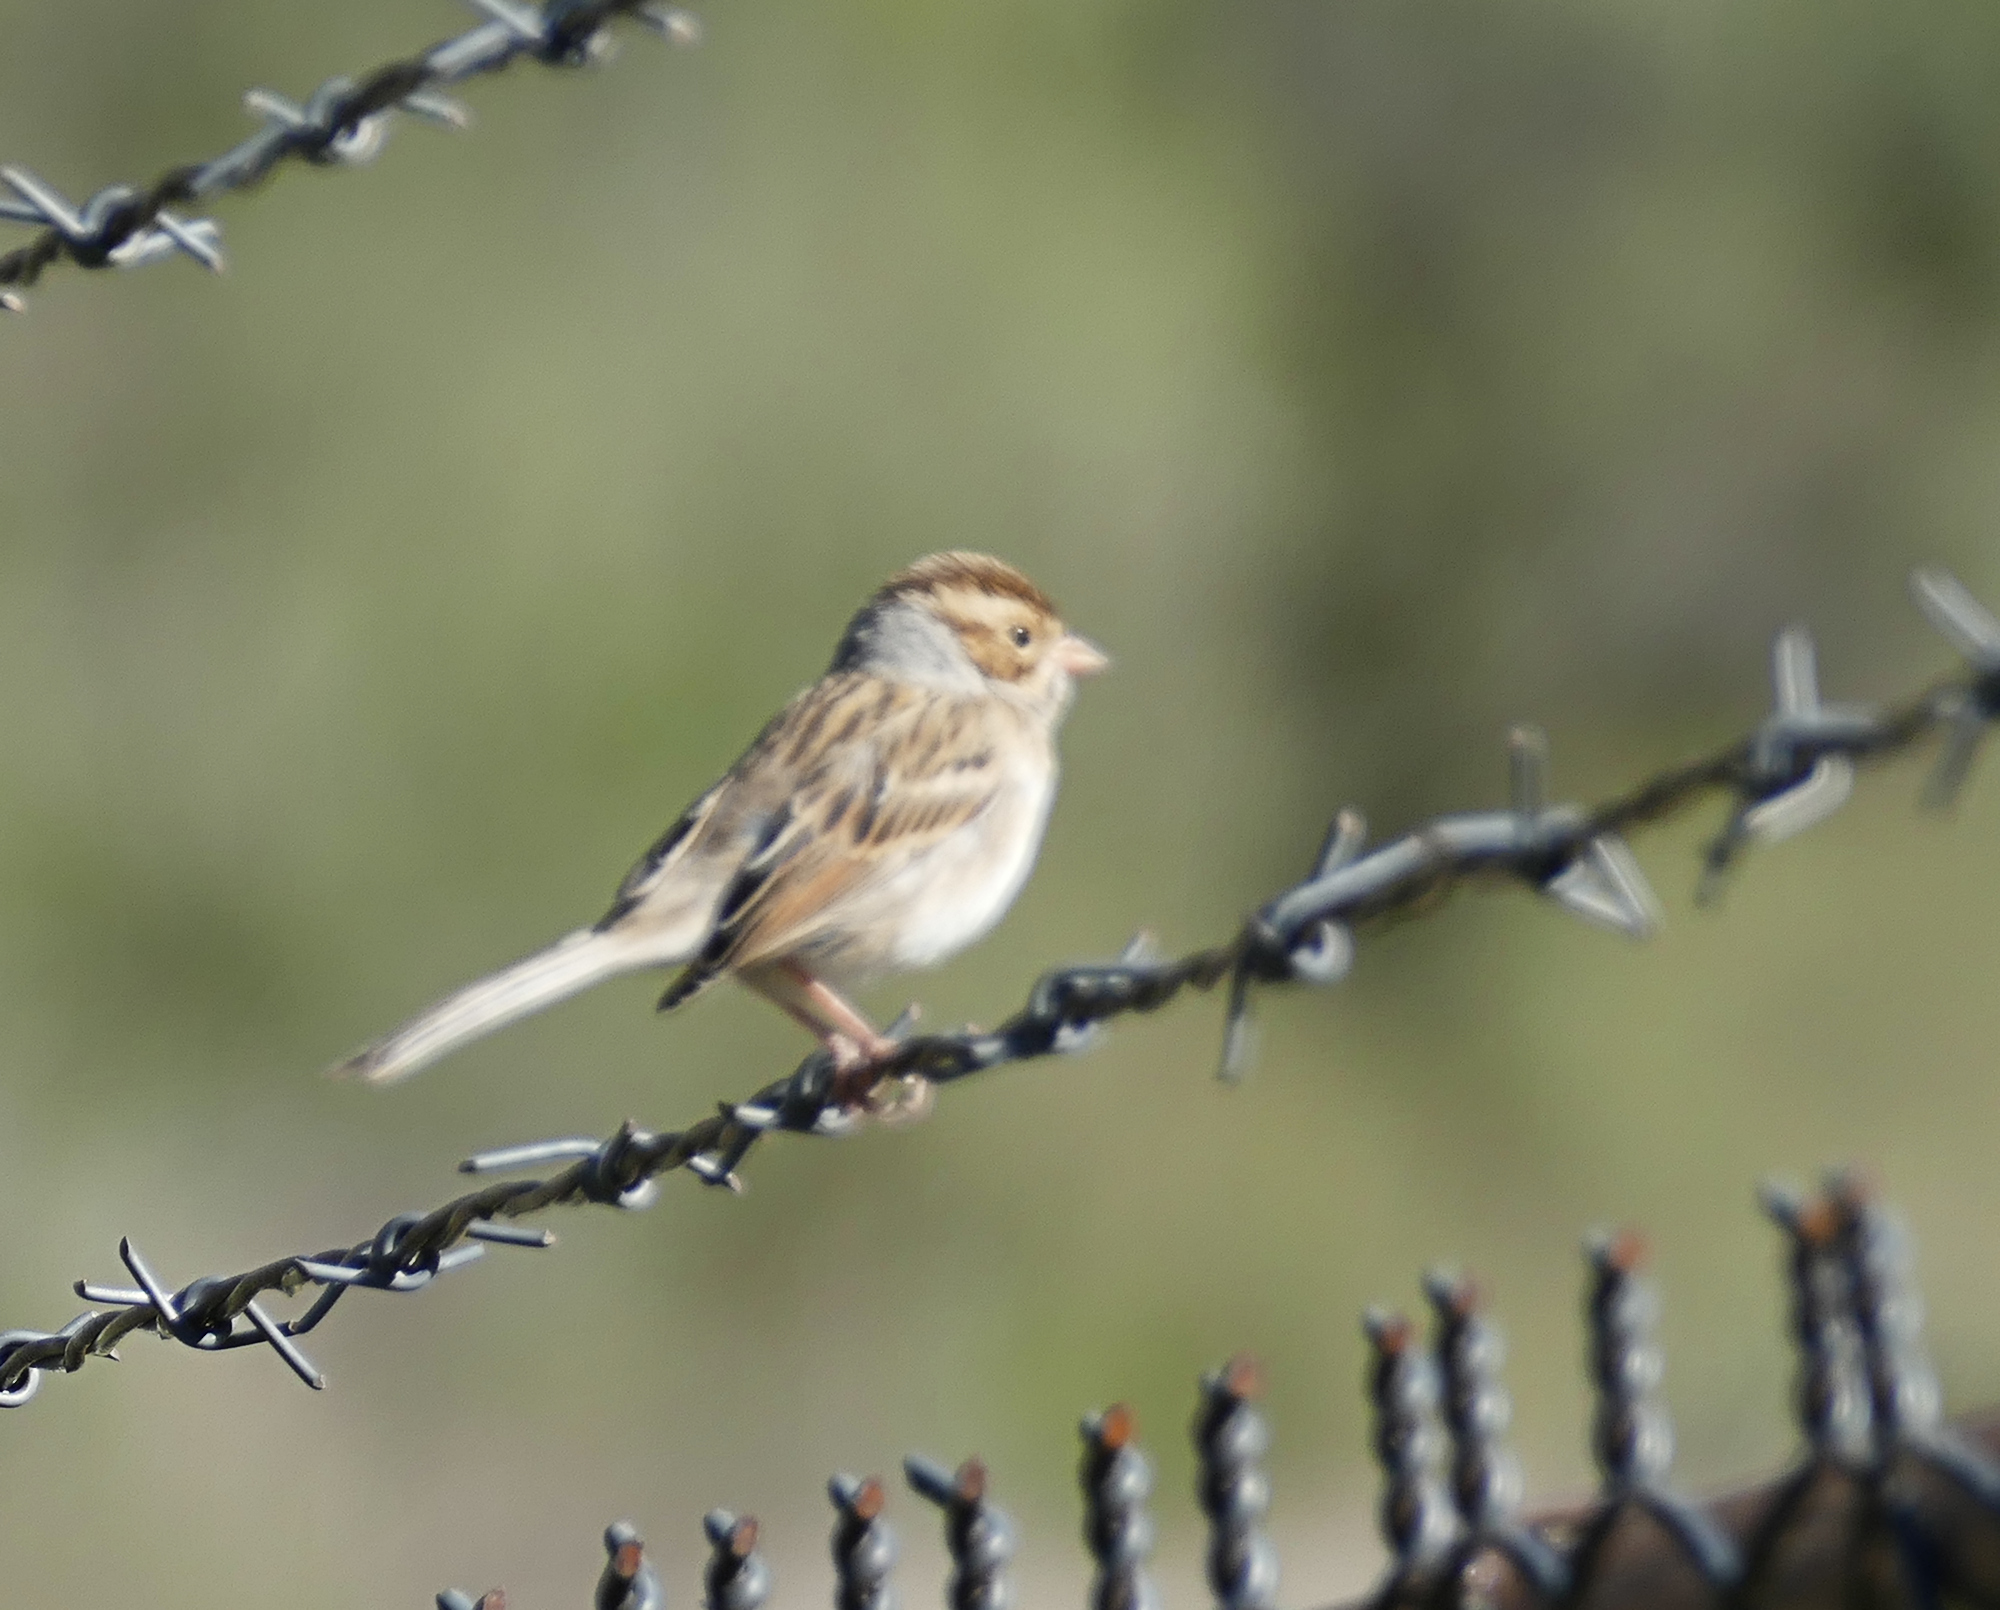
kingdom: Animalia
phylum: Chordata
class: Aves
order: Passeriformes
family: Passerellidae
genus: Spizella
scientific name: Spizella pallida
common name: Clay-colored sparrow
